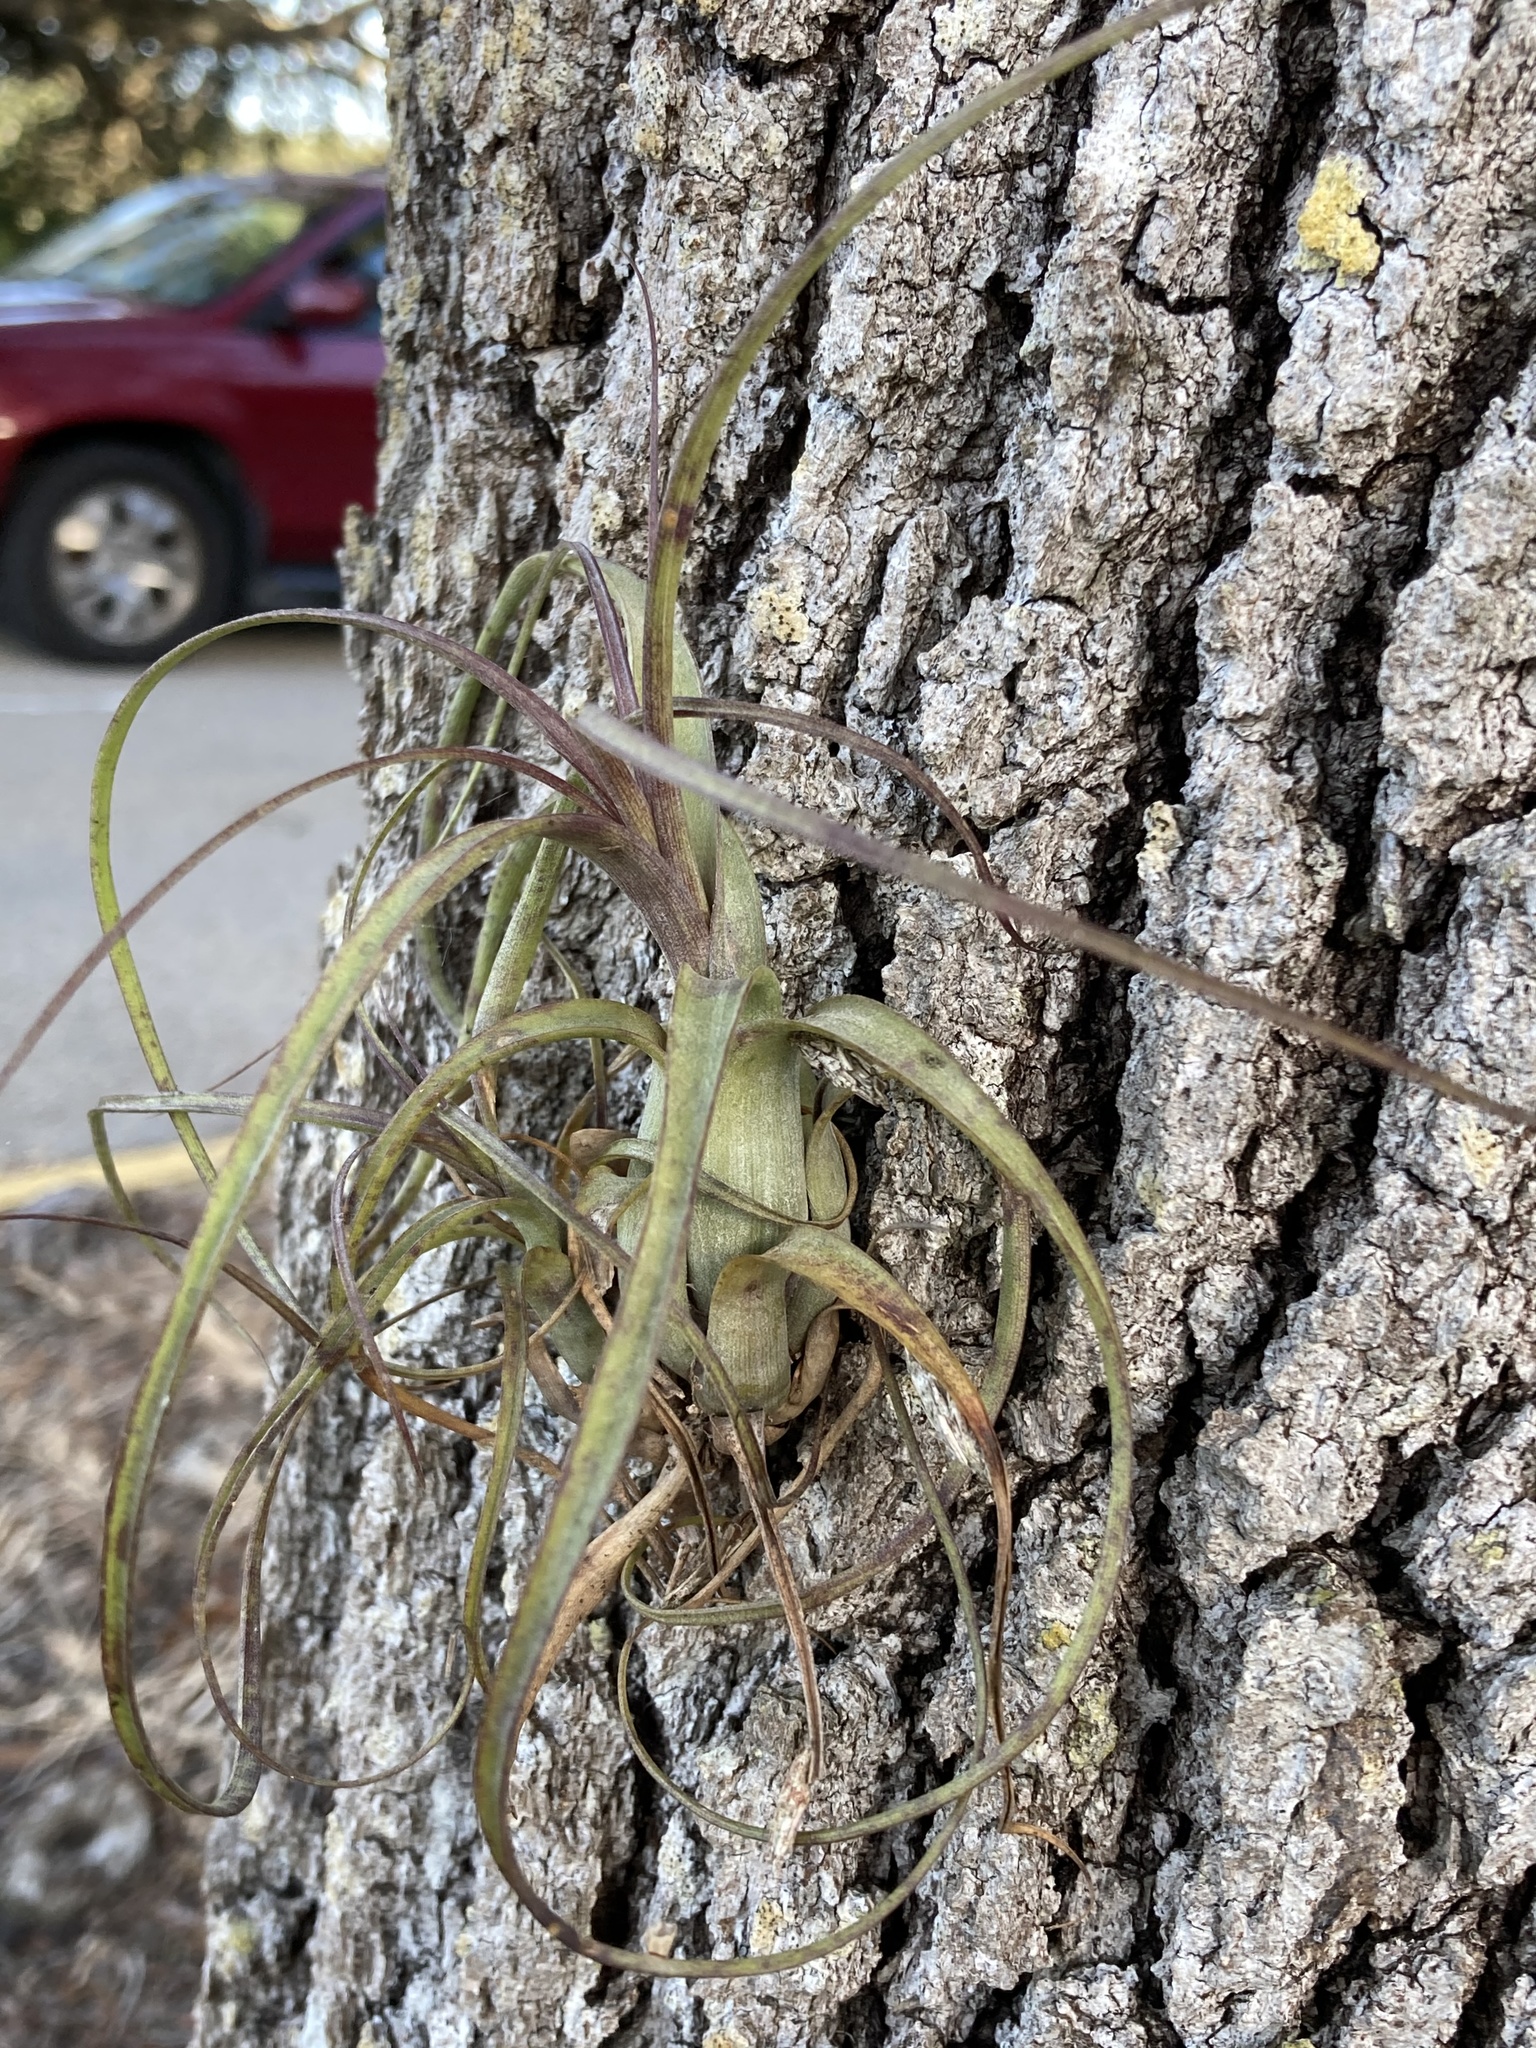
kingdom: Plantae
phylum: Tracheophyta
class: Liliopsida
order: Poales
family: Bromeliaceae
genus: Tillandsia
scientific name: Tillandsia balbisiana
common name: Northern needleleaf
